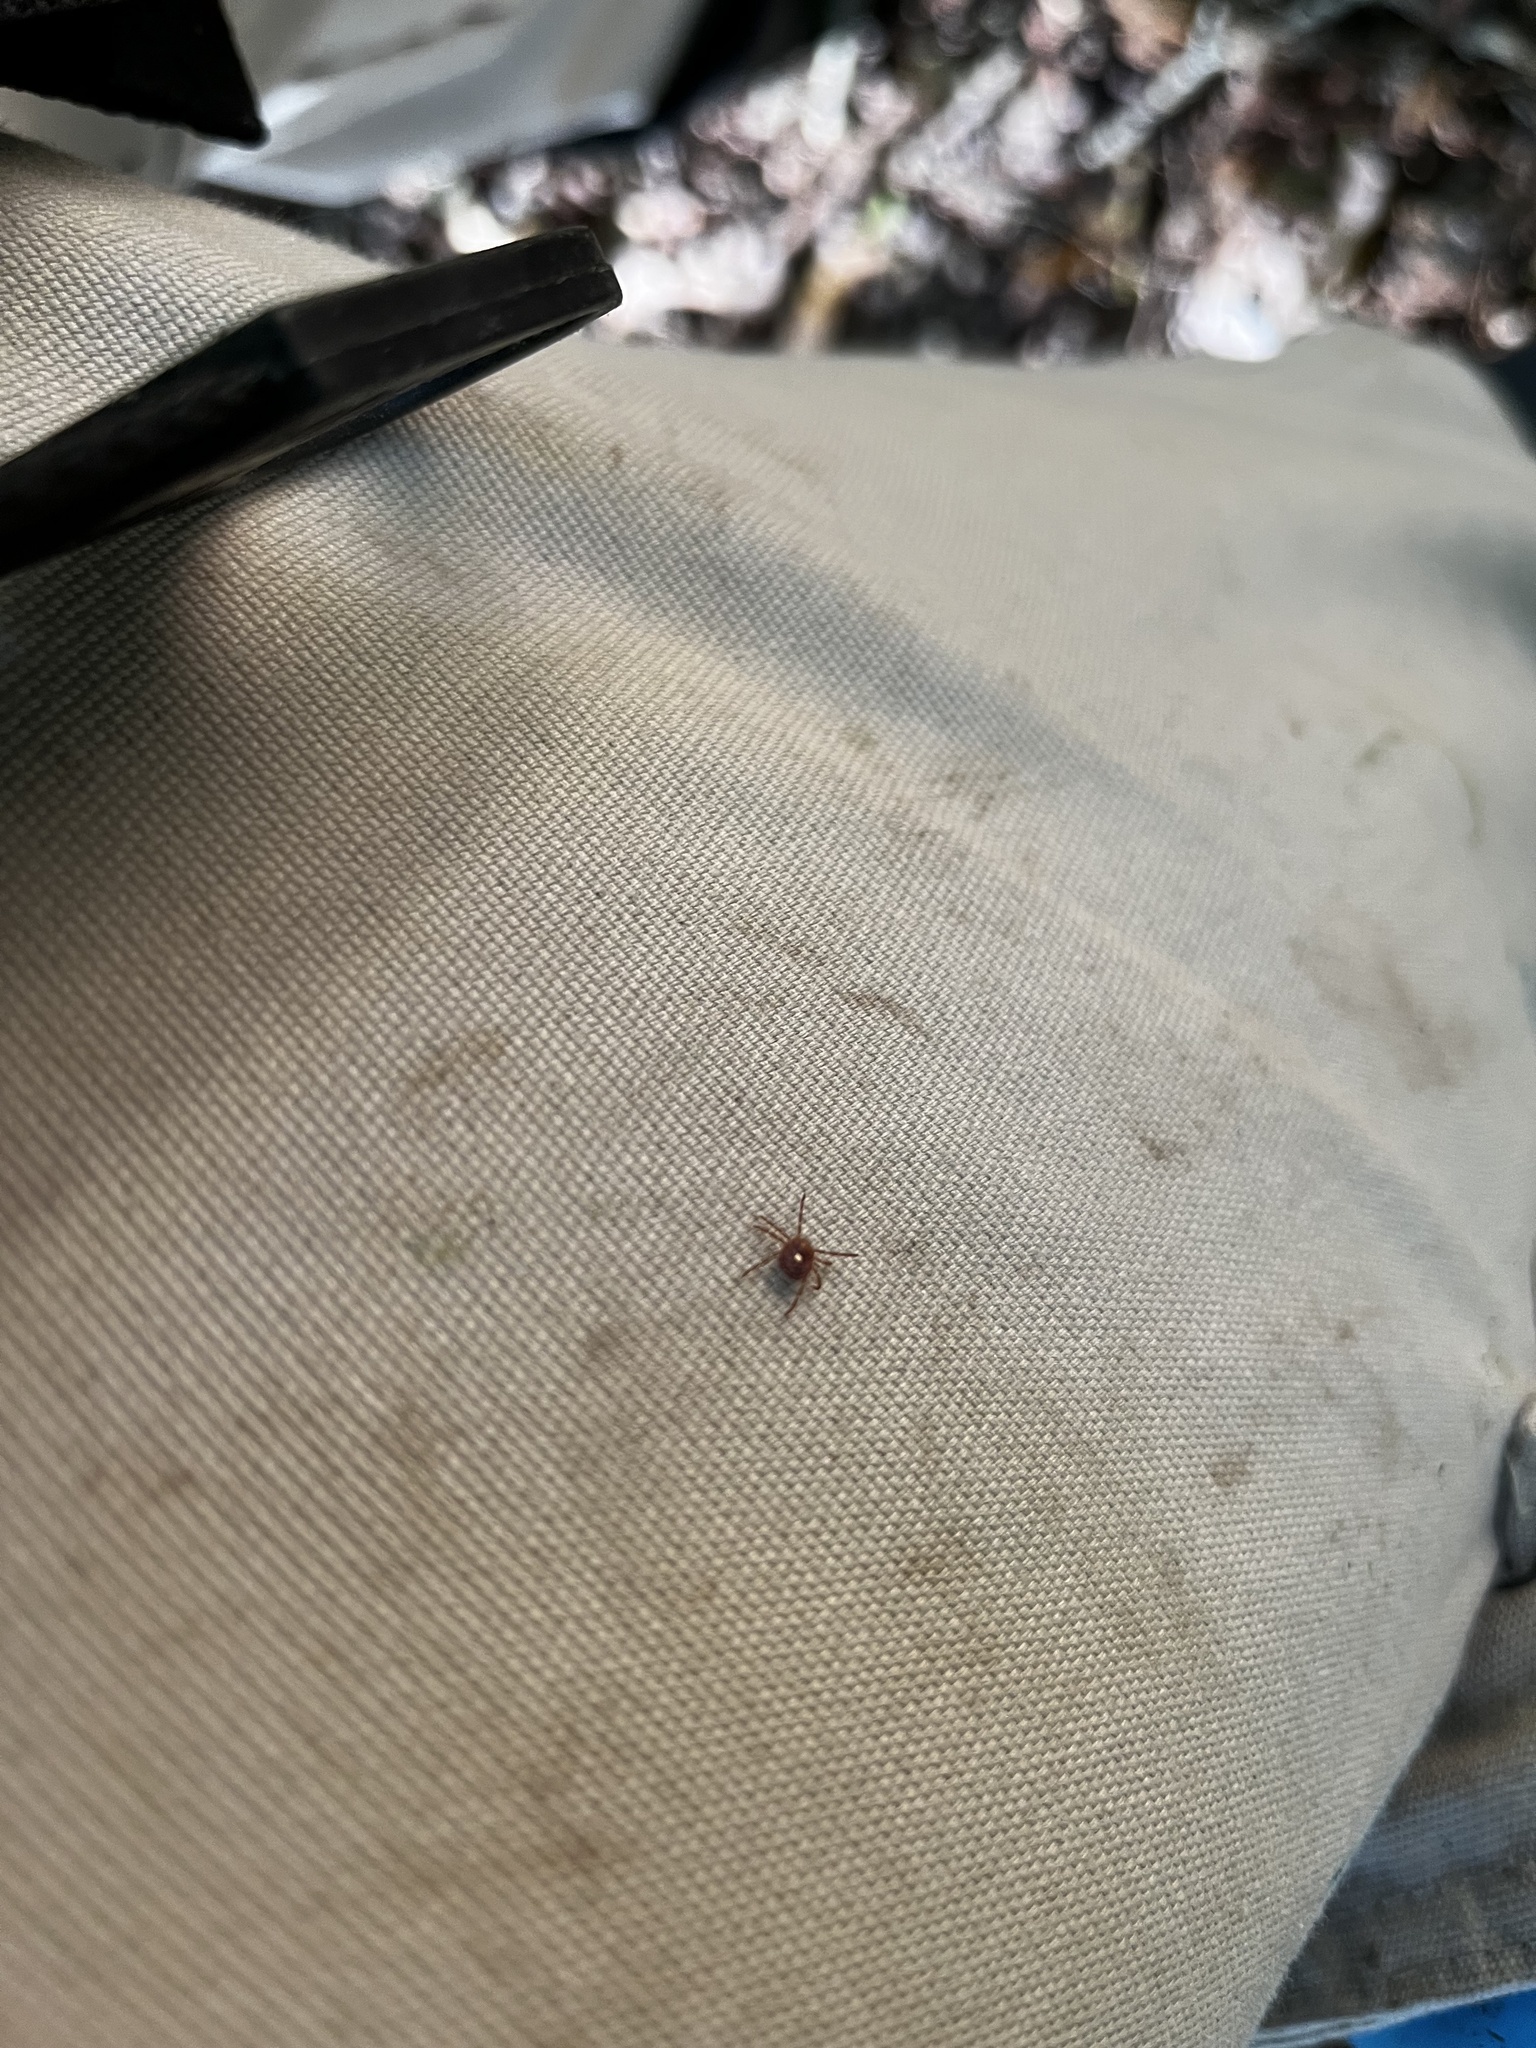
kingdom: Animalia
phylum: Arthropoda
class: Arachnida
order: Ixodida
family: Ixodidae
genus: Amblyomma
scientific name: Amblyomma americanum
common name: Lone star tick
